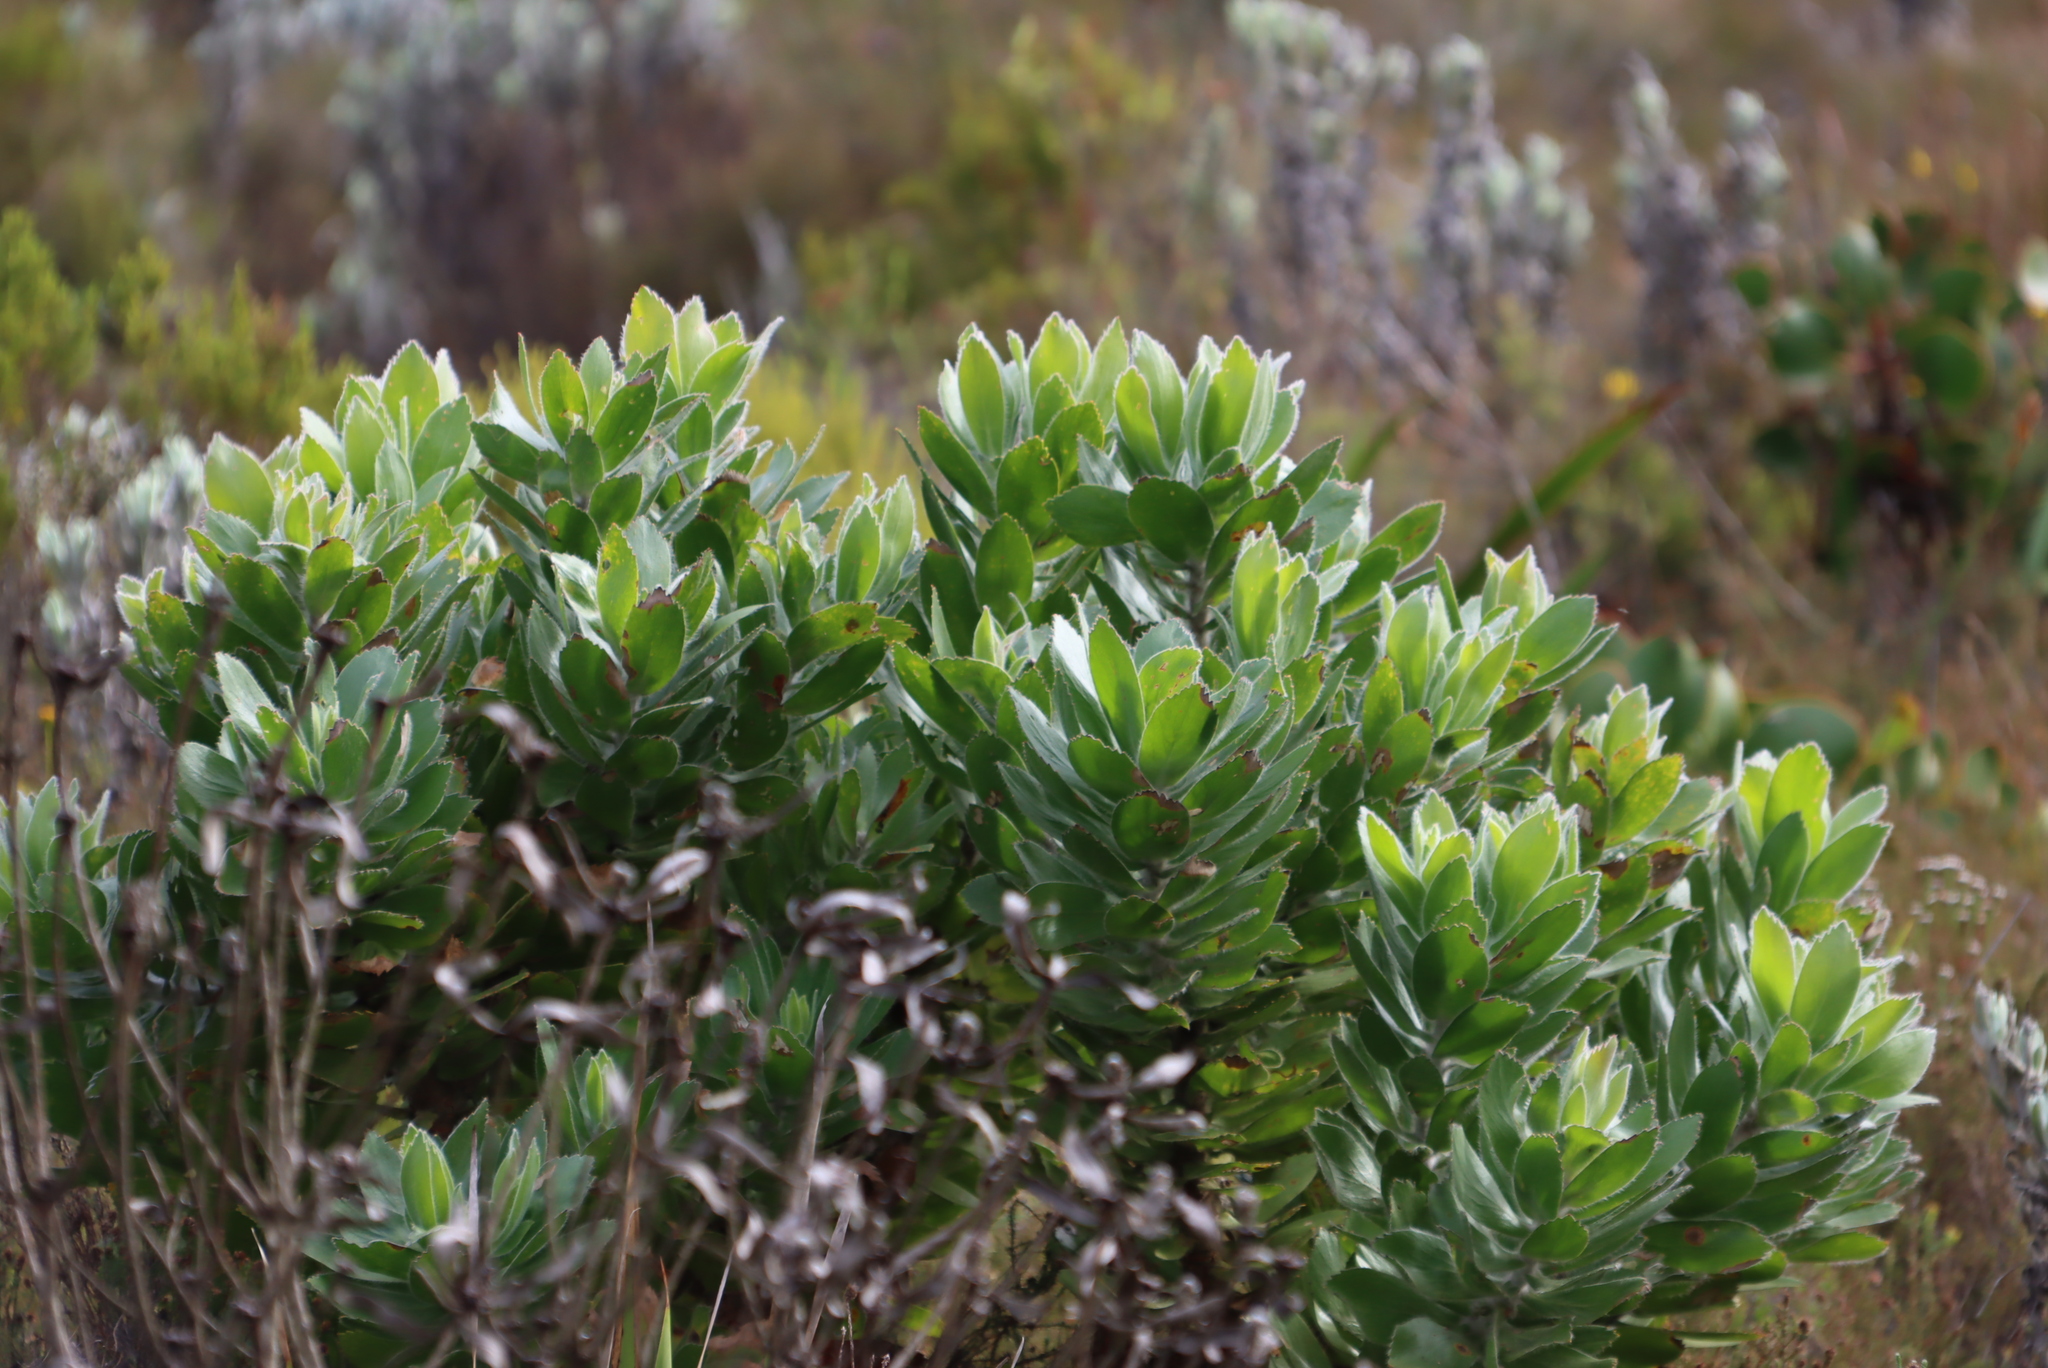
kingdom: Plantae
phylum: Tracheophyta
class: Magnoliopsida
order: Proteales
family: Proteaceae
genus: Leucospermum
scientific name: Leucospermum conocarpodendron
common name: Tree pincushion
